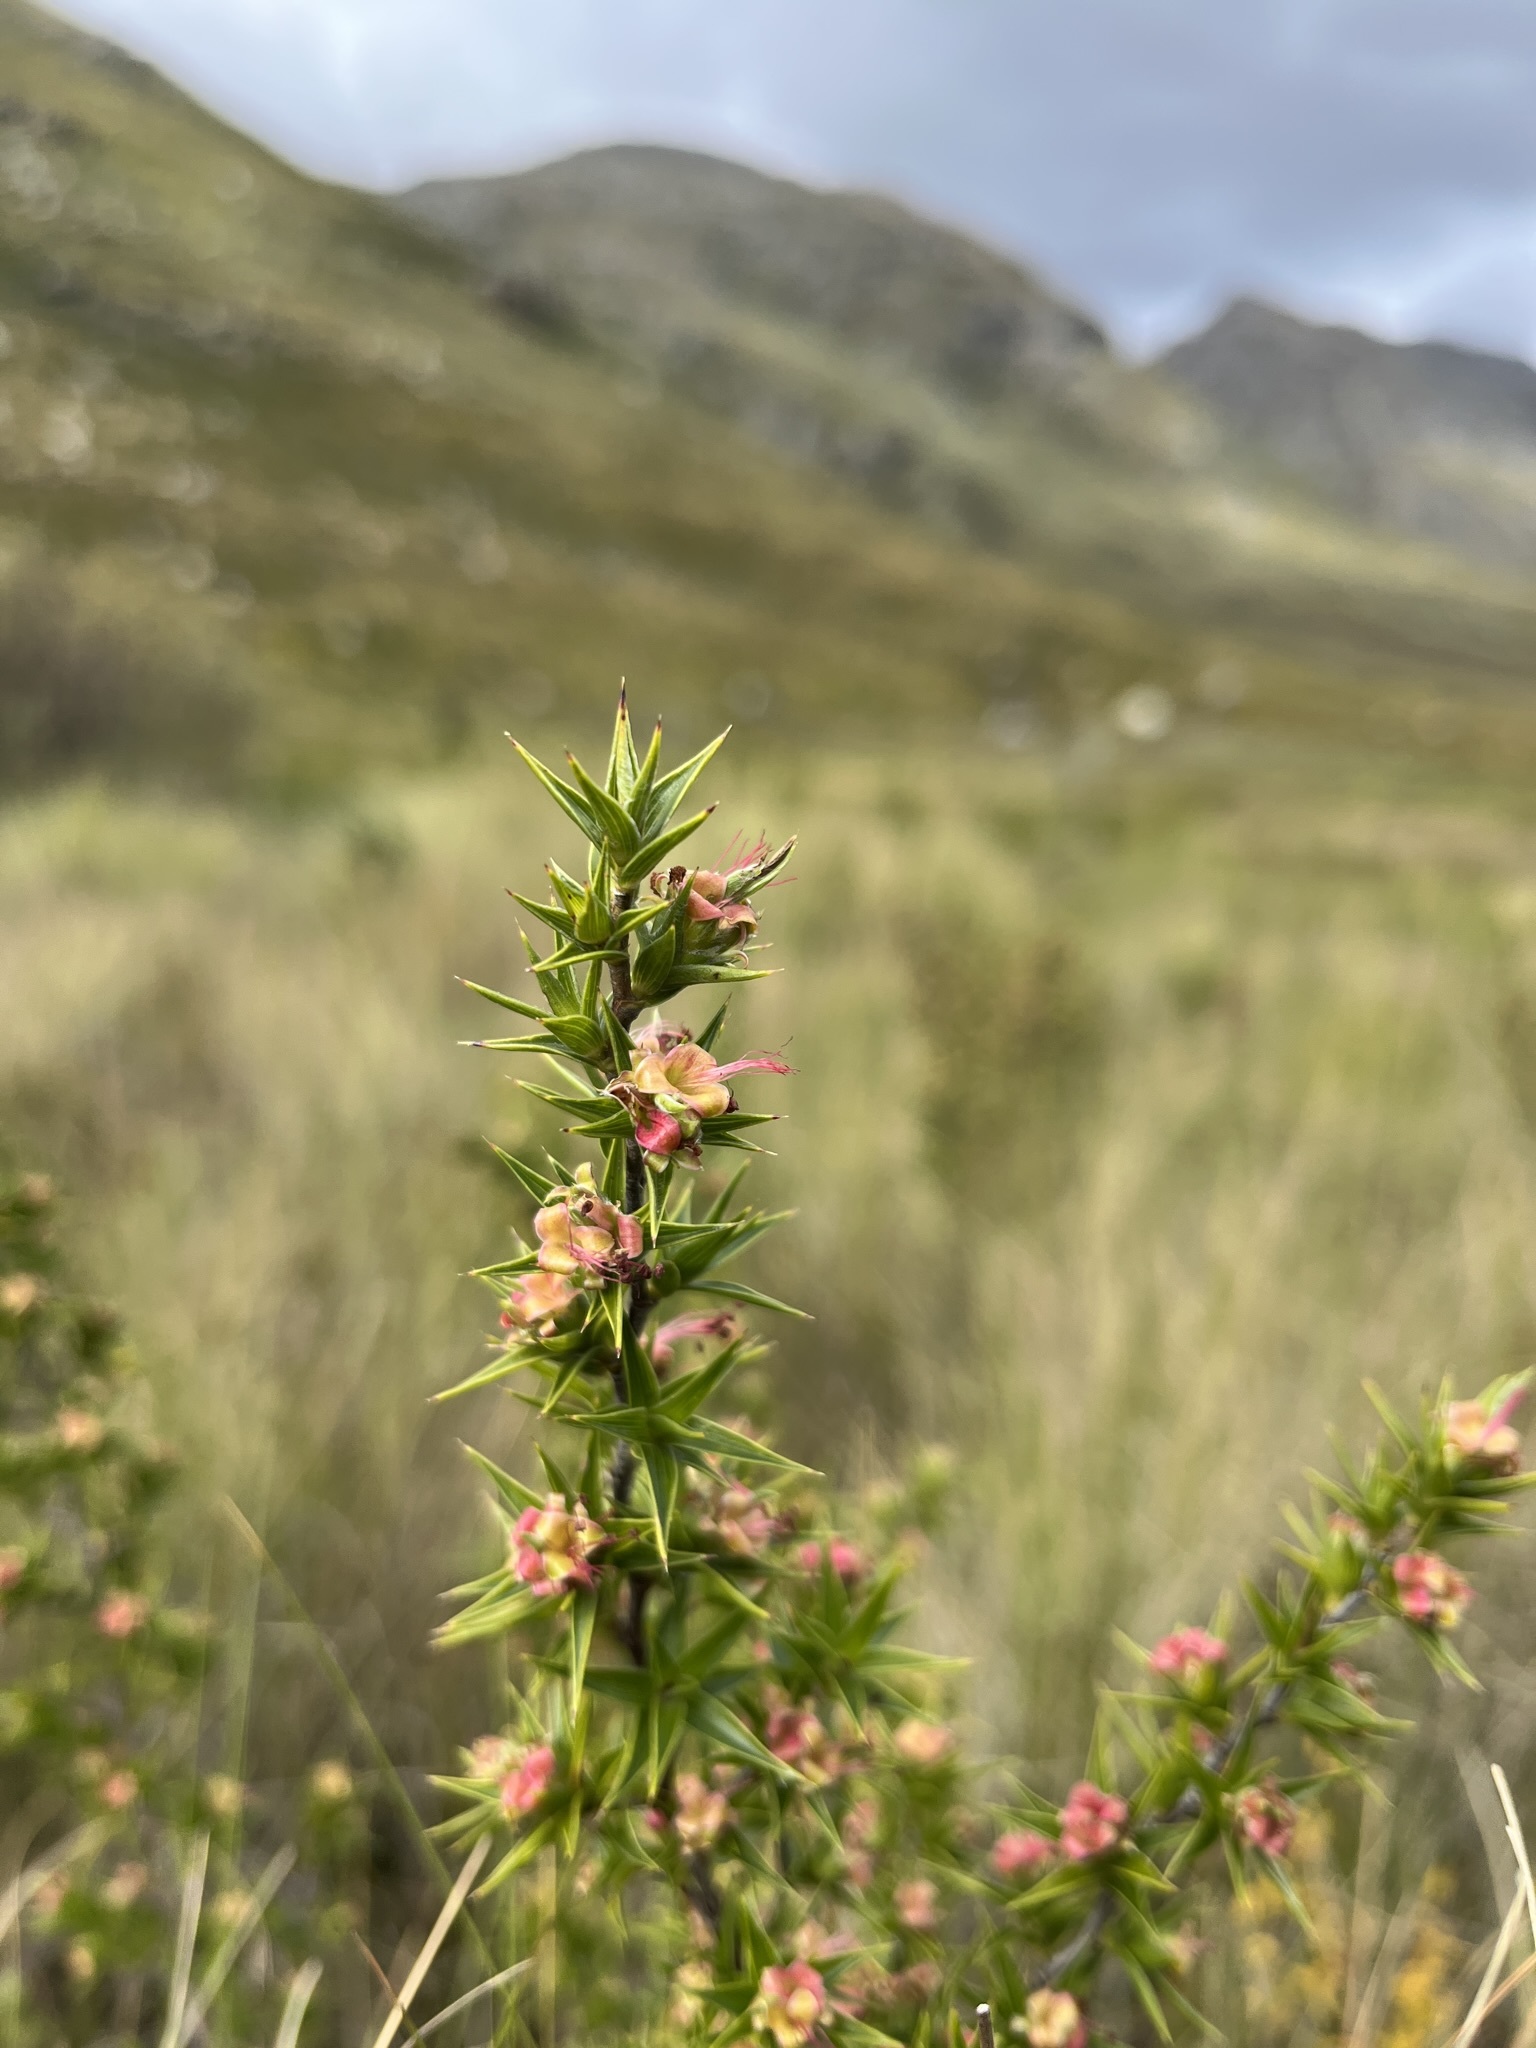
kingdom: Plantae
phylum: Tracheophyta
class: Magnoliopsida
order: Rosales
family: Rosaceae
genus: Cliffortia
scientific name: Cliffortia ruscifolia
